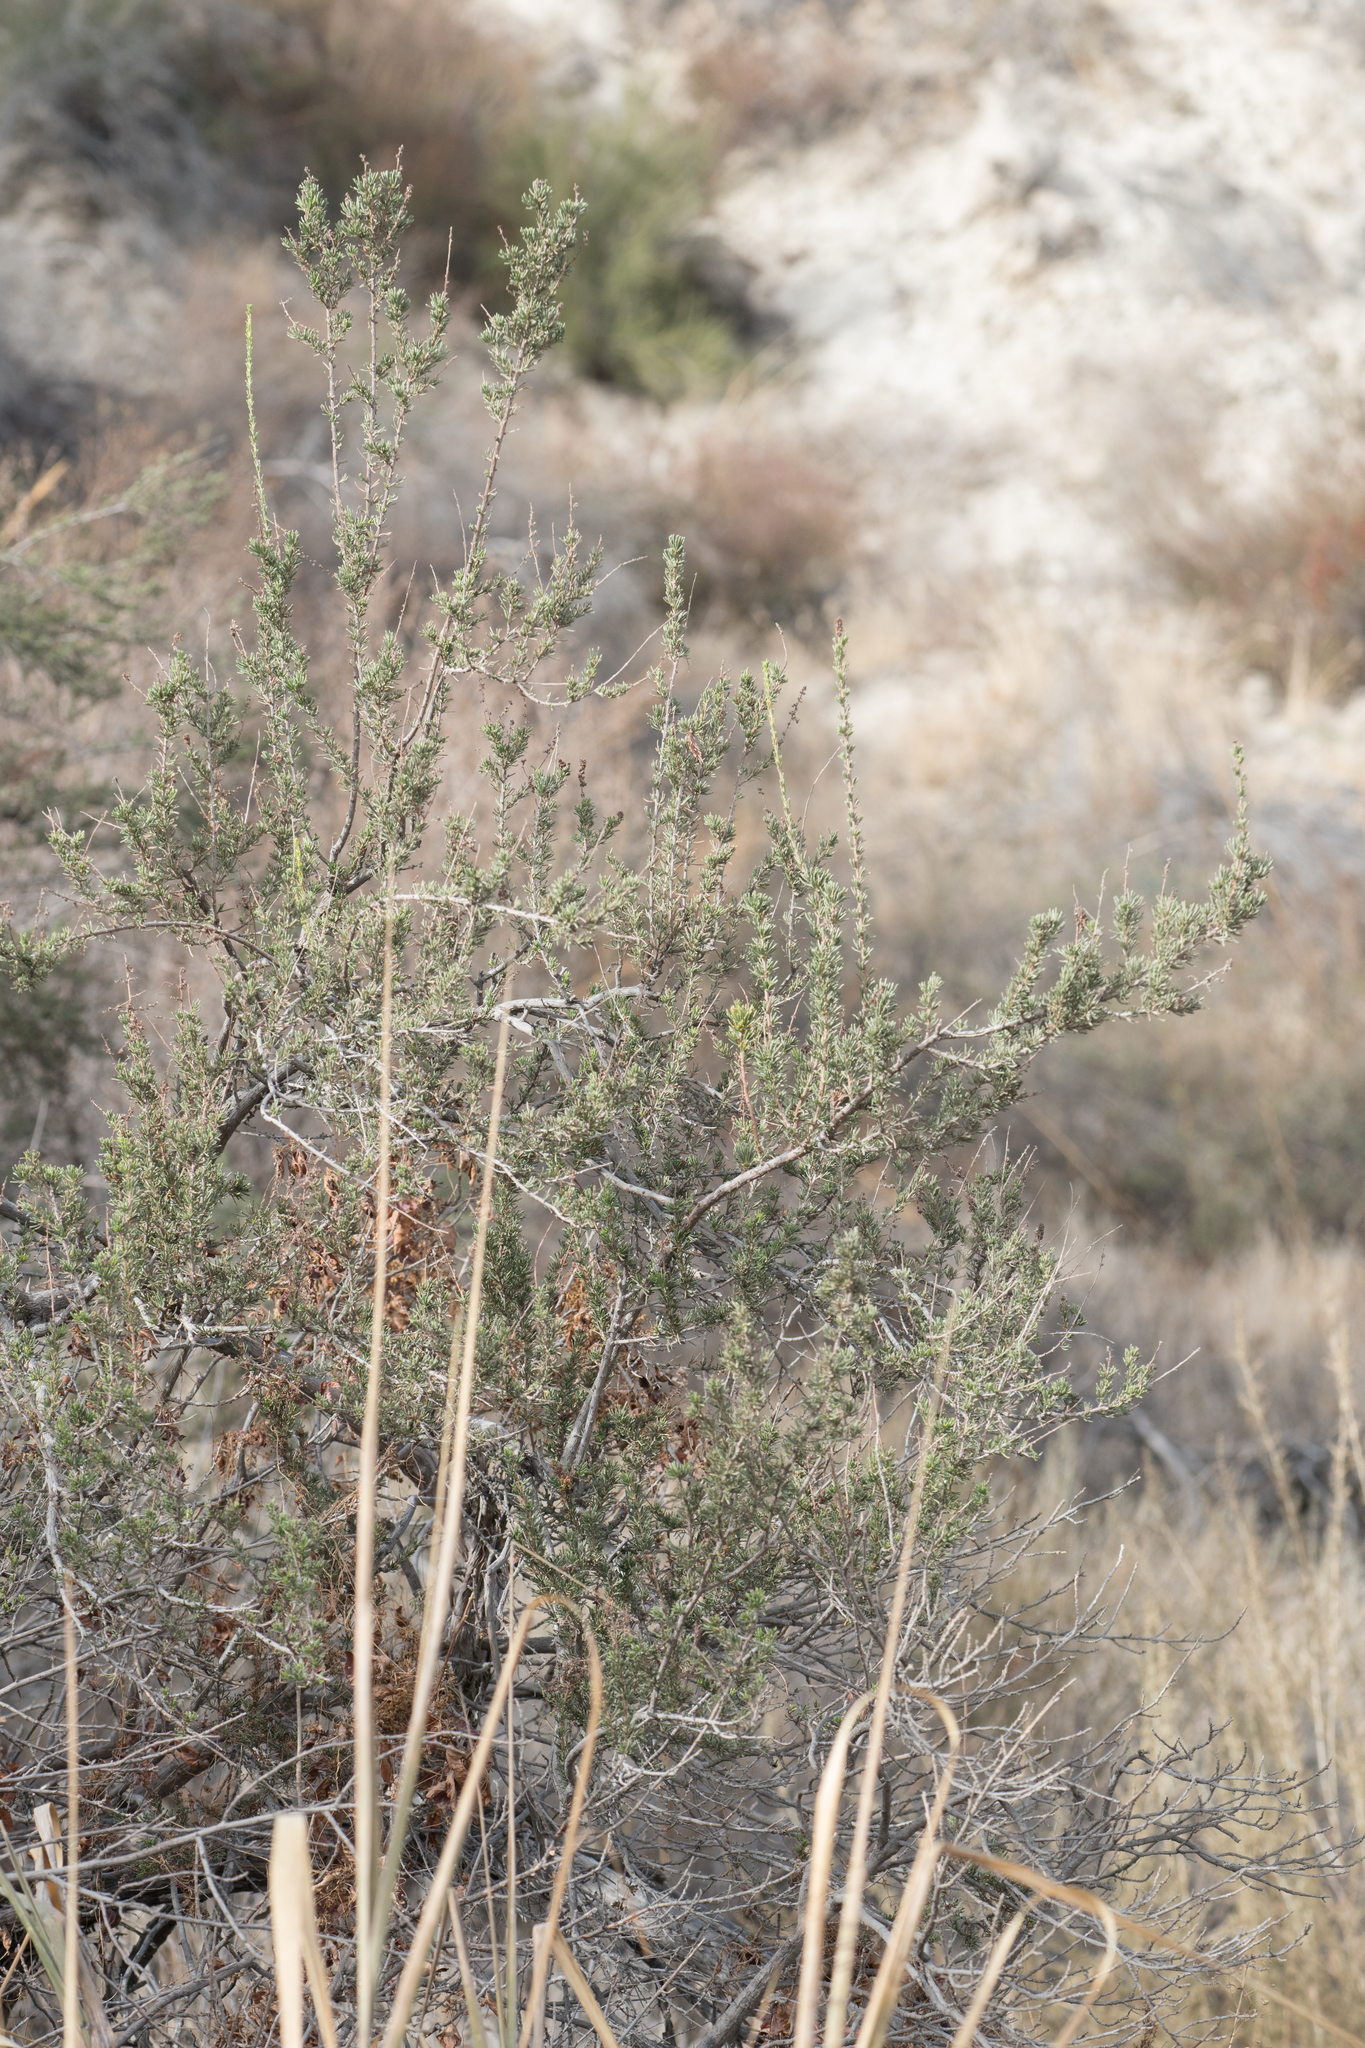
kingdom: Plantae
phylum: Tracheophyta
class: Magnoliopsida
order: Rosales
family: Rosaceae
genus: Adenostoma
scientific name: Adenostoma fasciculatum
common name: Chamise
